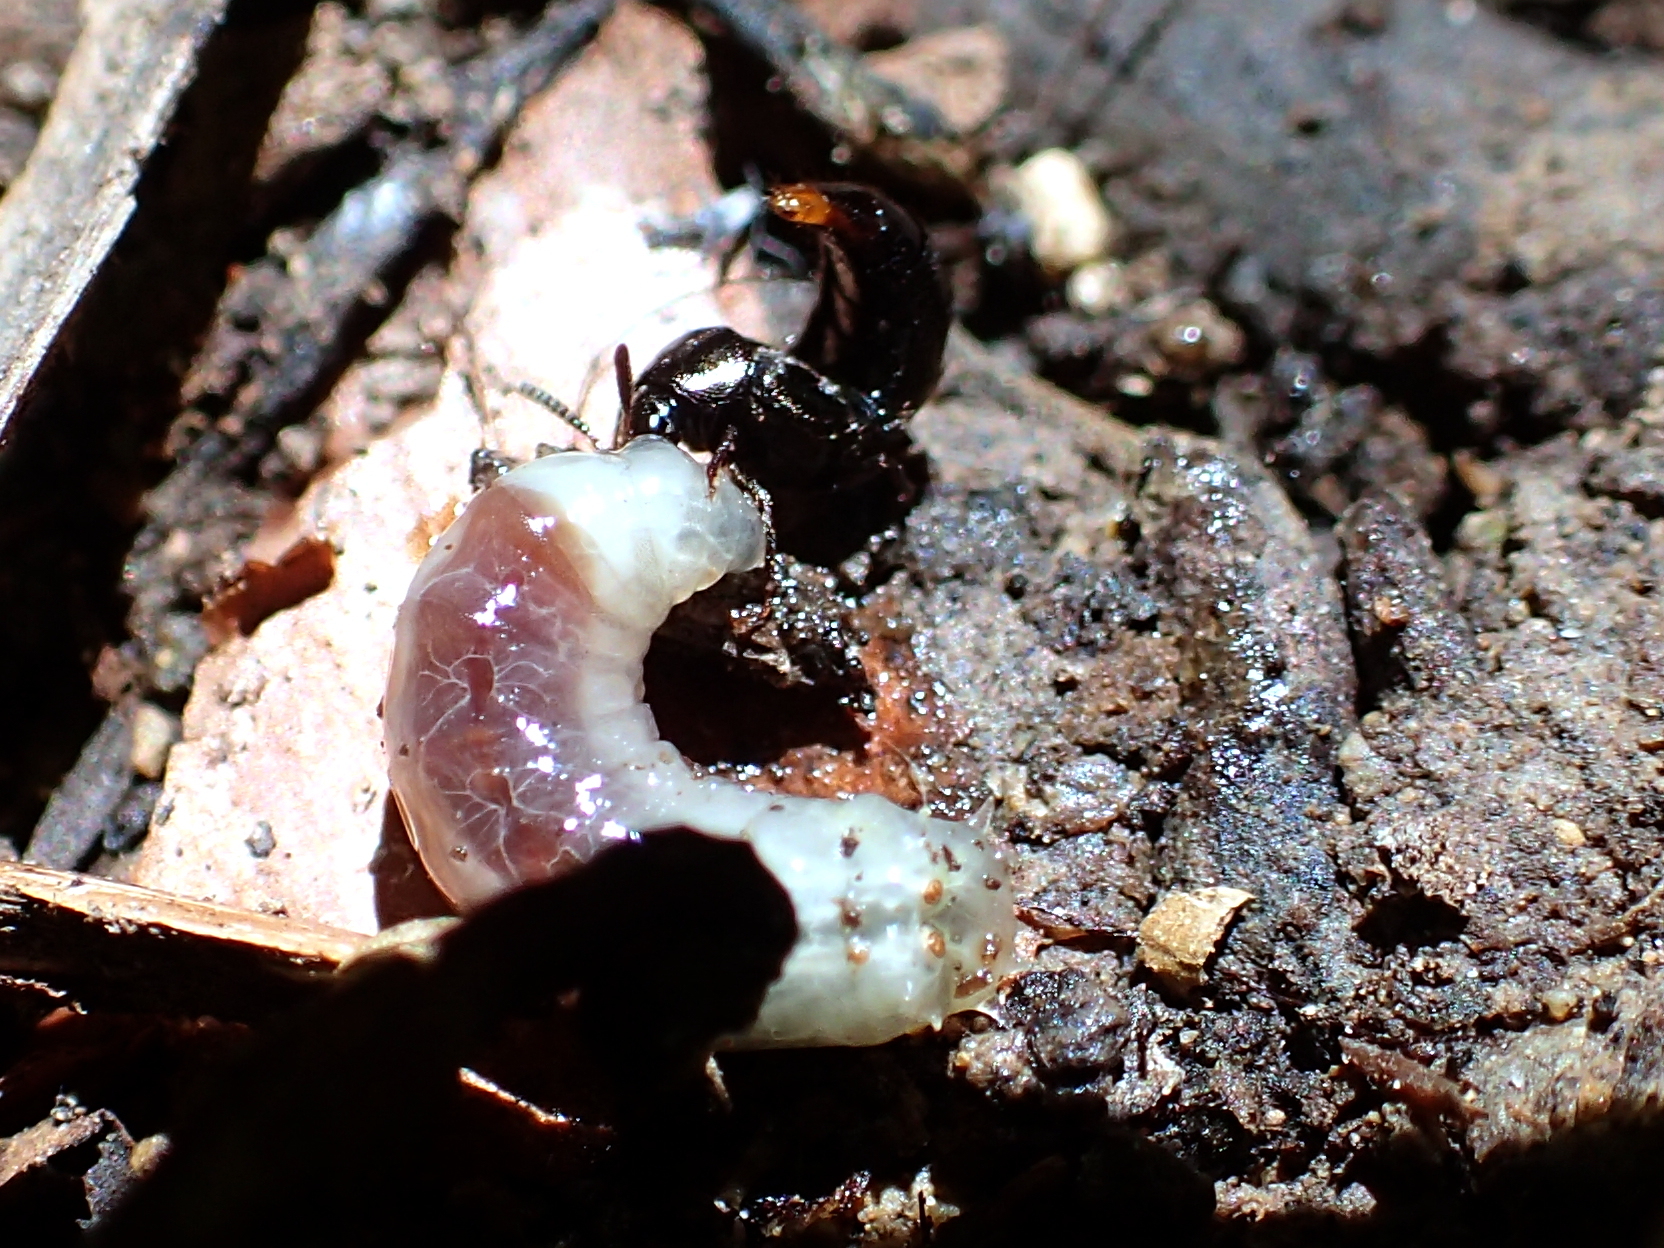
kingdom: Animalia
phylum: Arthropoda
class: Insecta
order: Coleoptera
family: Staphylinidae
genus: Aleochara
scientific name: Aleochara
